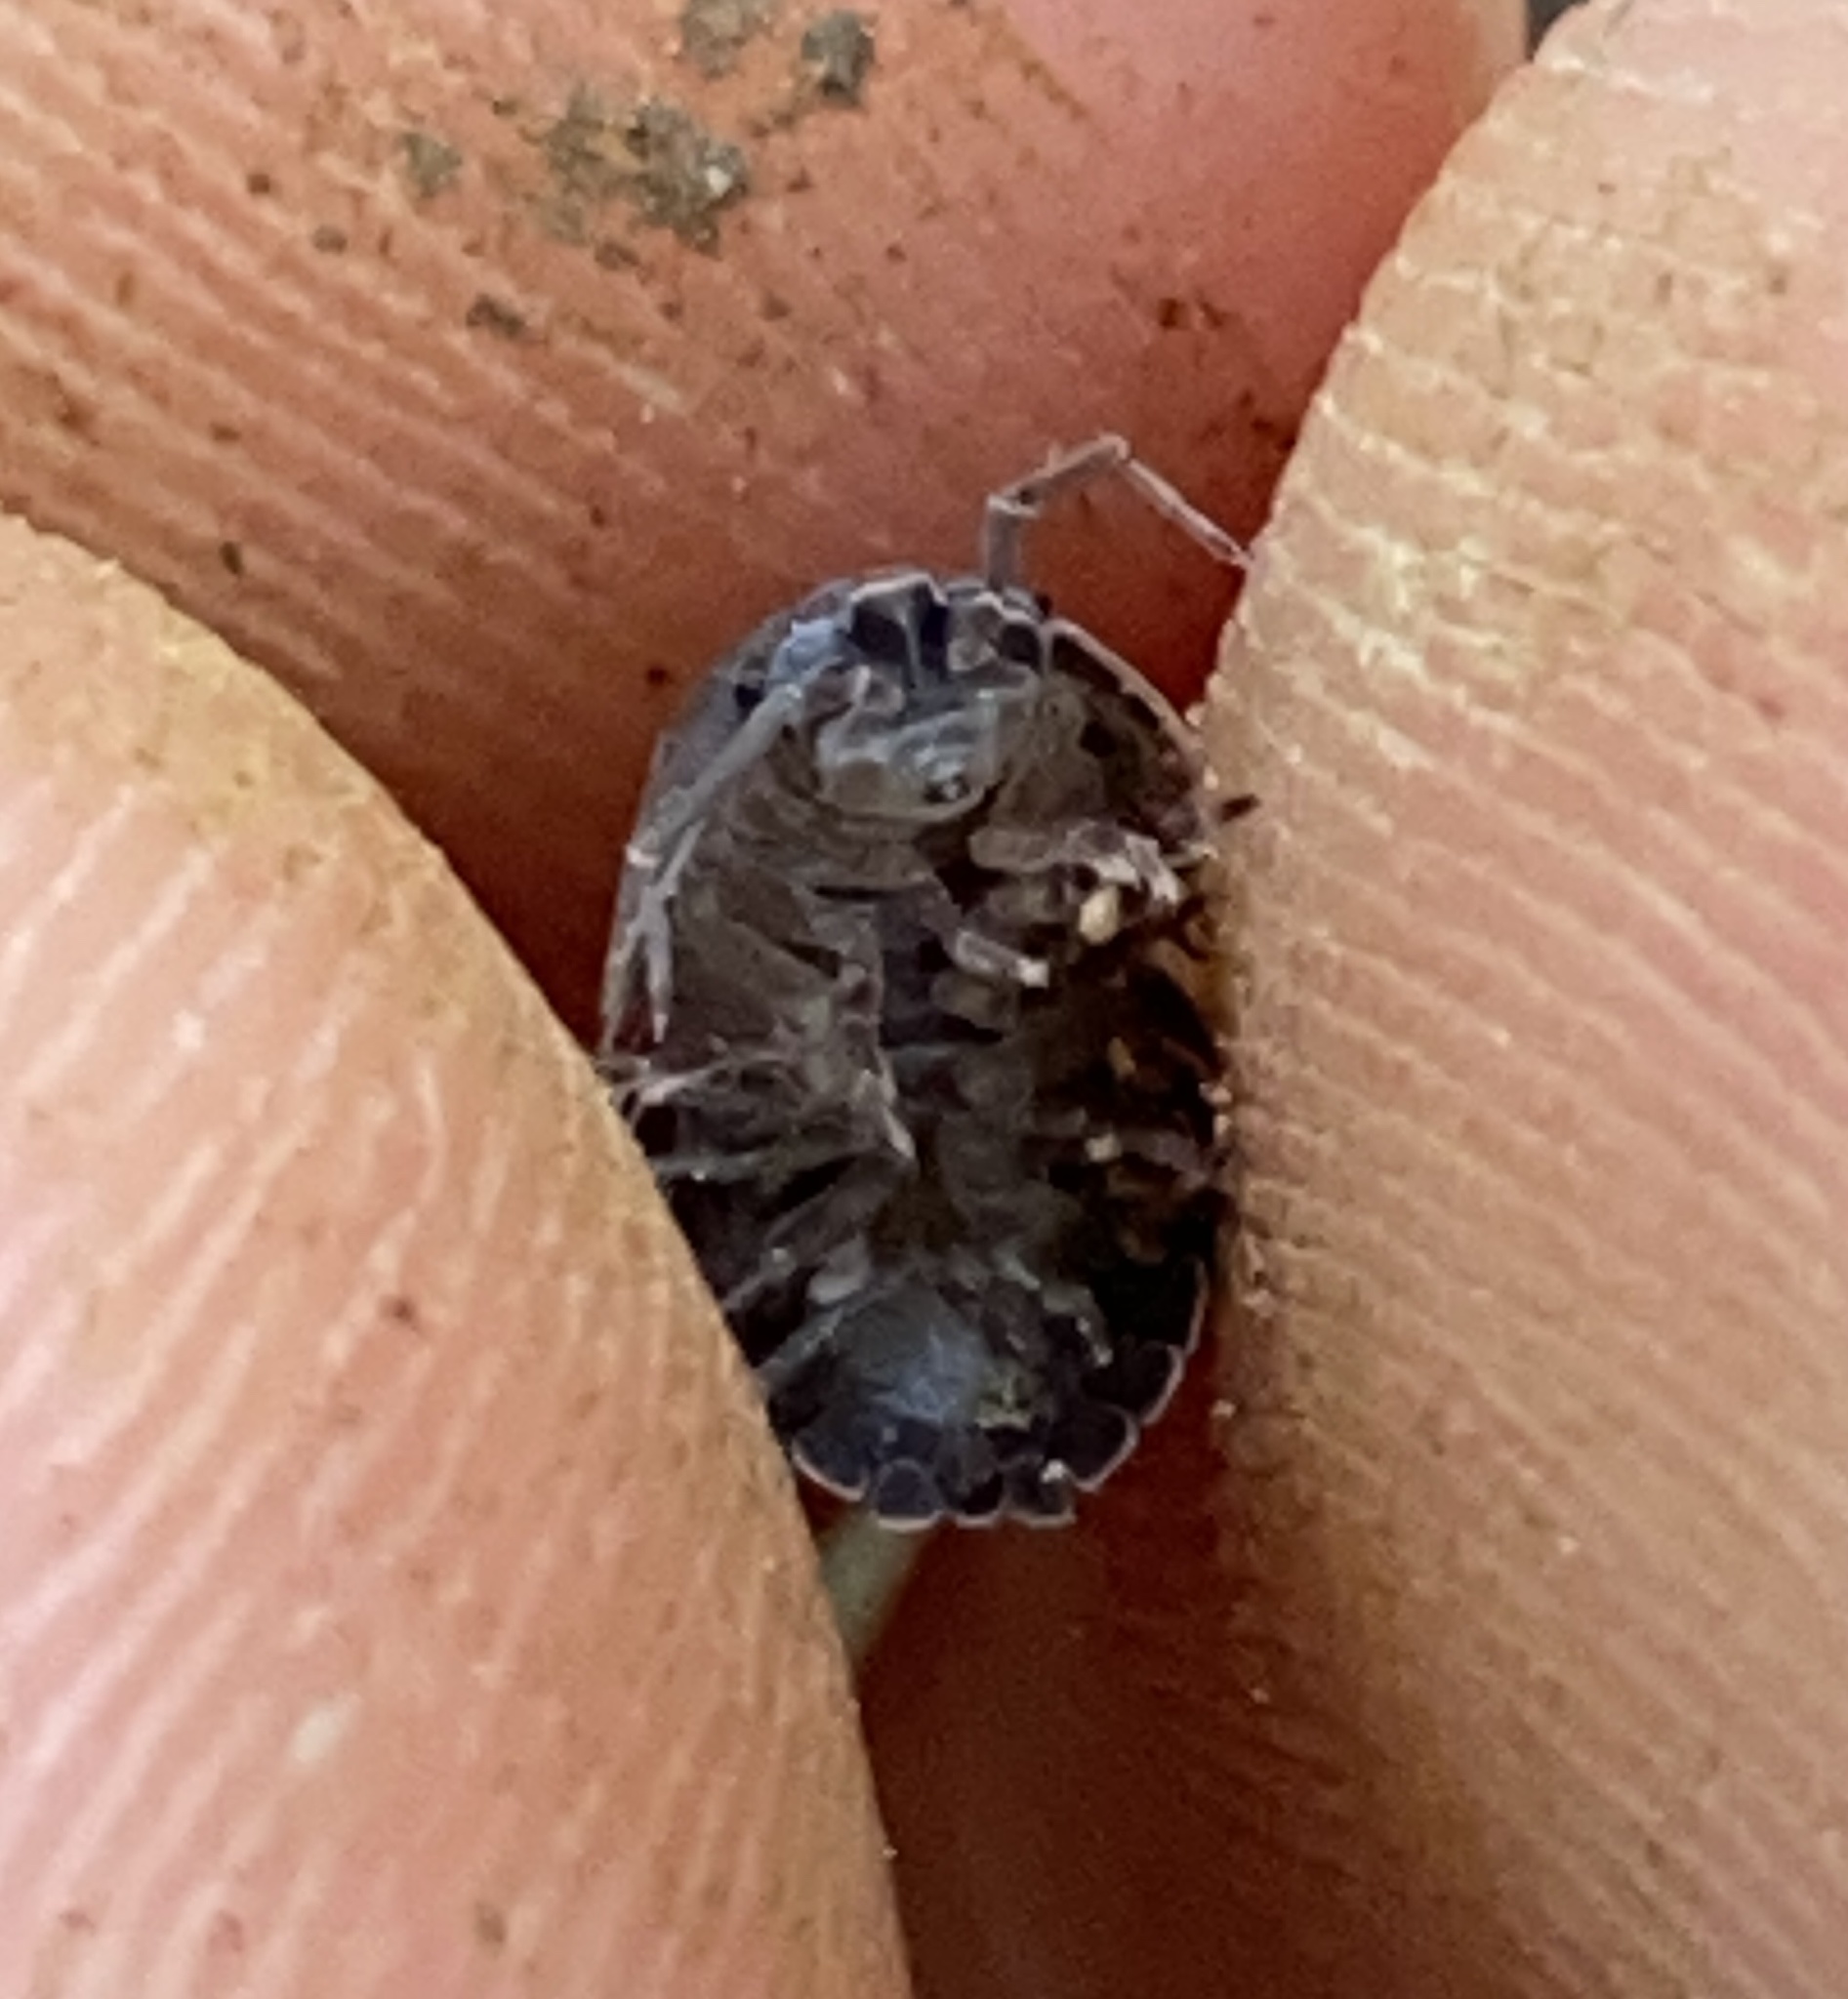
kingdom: Animalia
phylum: Arthropoda
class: Malacostraca
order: Isopoda
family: Armadillidiidae
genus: Armadillidium
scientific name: Armadillidium nasatum
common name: Isopod
